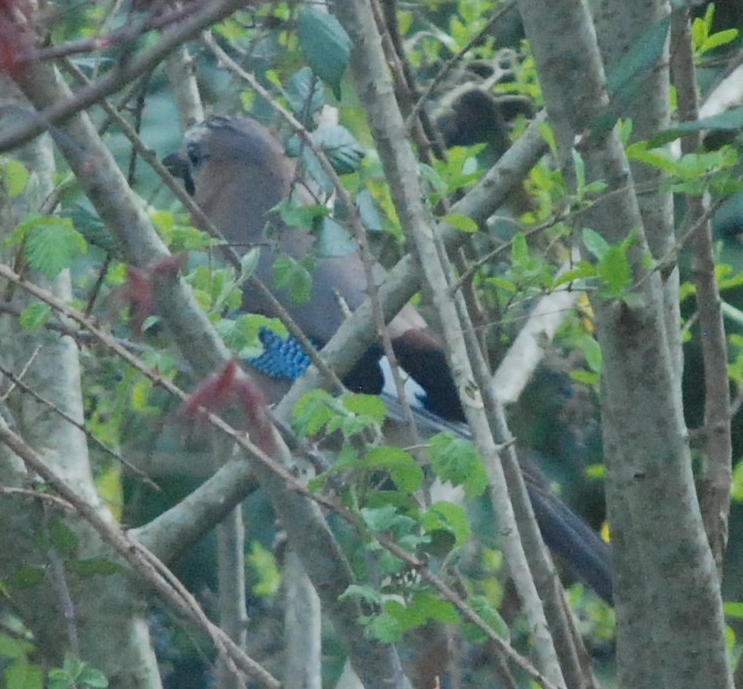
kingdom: Animalia
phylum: Chordata
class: Aves
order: Passeriformes
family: Corvidae
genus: Garrulus
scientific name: Garrulus glandarius
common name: Eurasian jay
